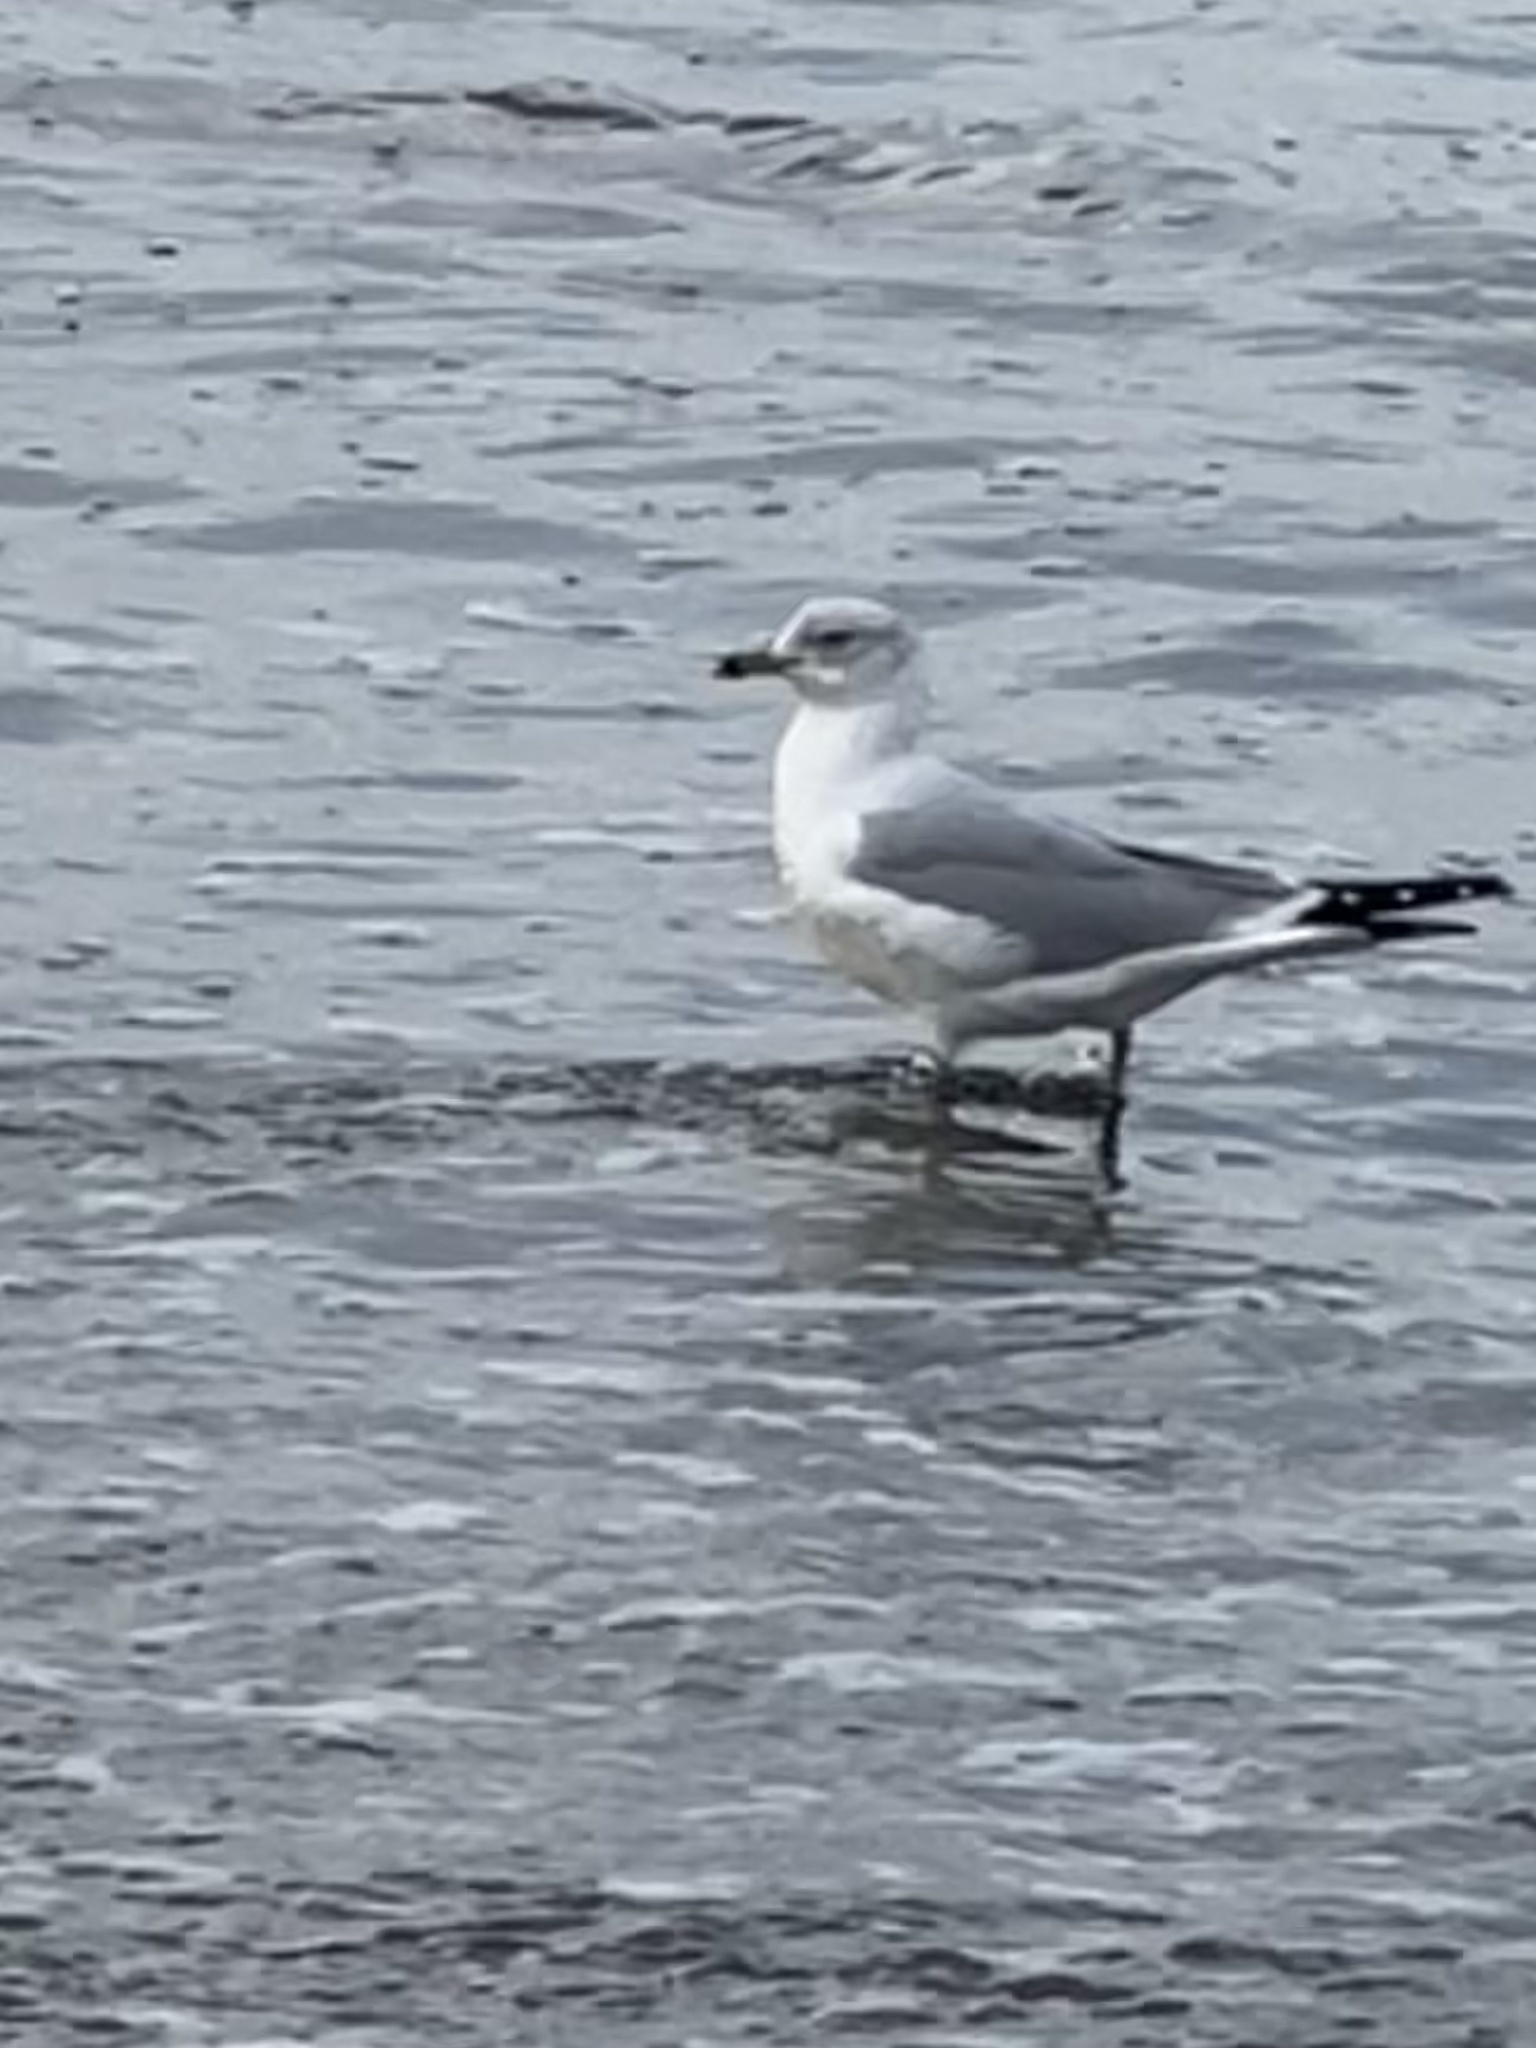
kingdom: Animalia
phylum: Chordata
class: Aves
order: Charadriiformes
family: Laridae
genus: Larus
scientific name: Larus delawarensis
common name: Ring-billed gull
